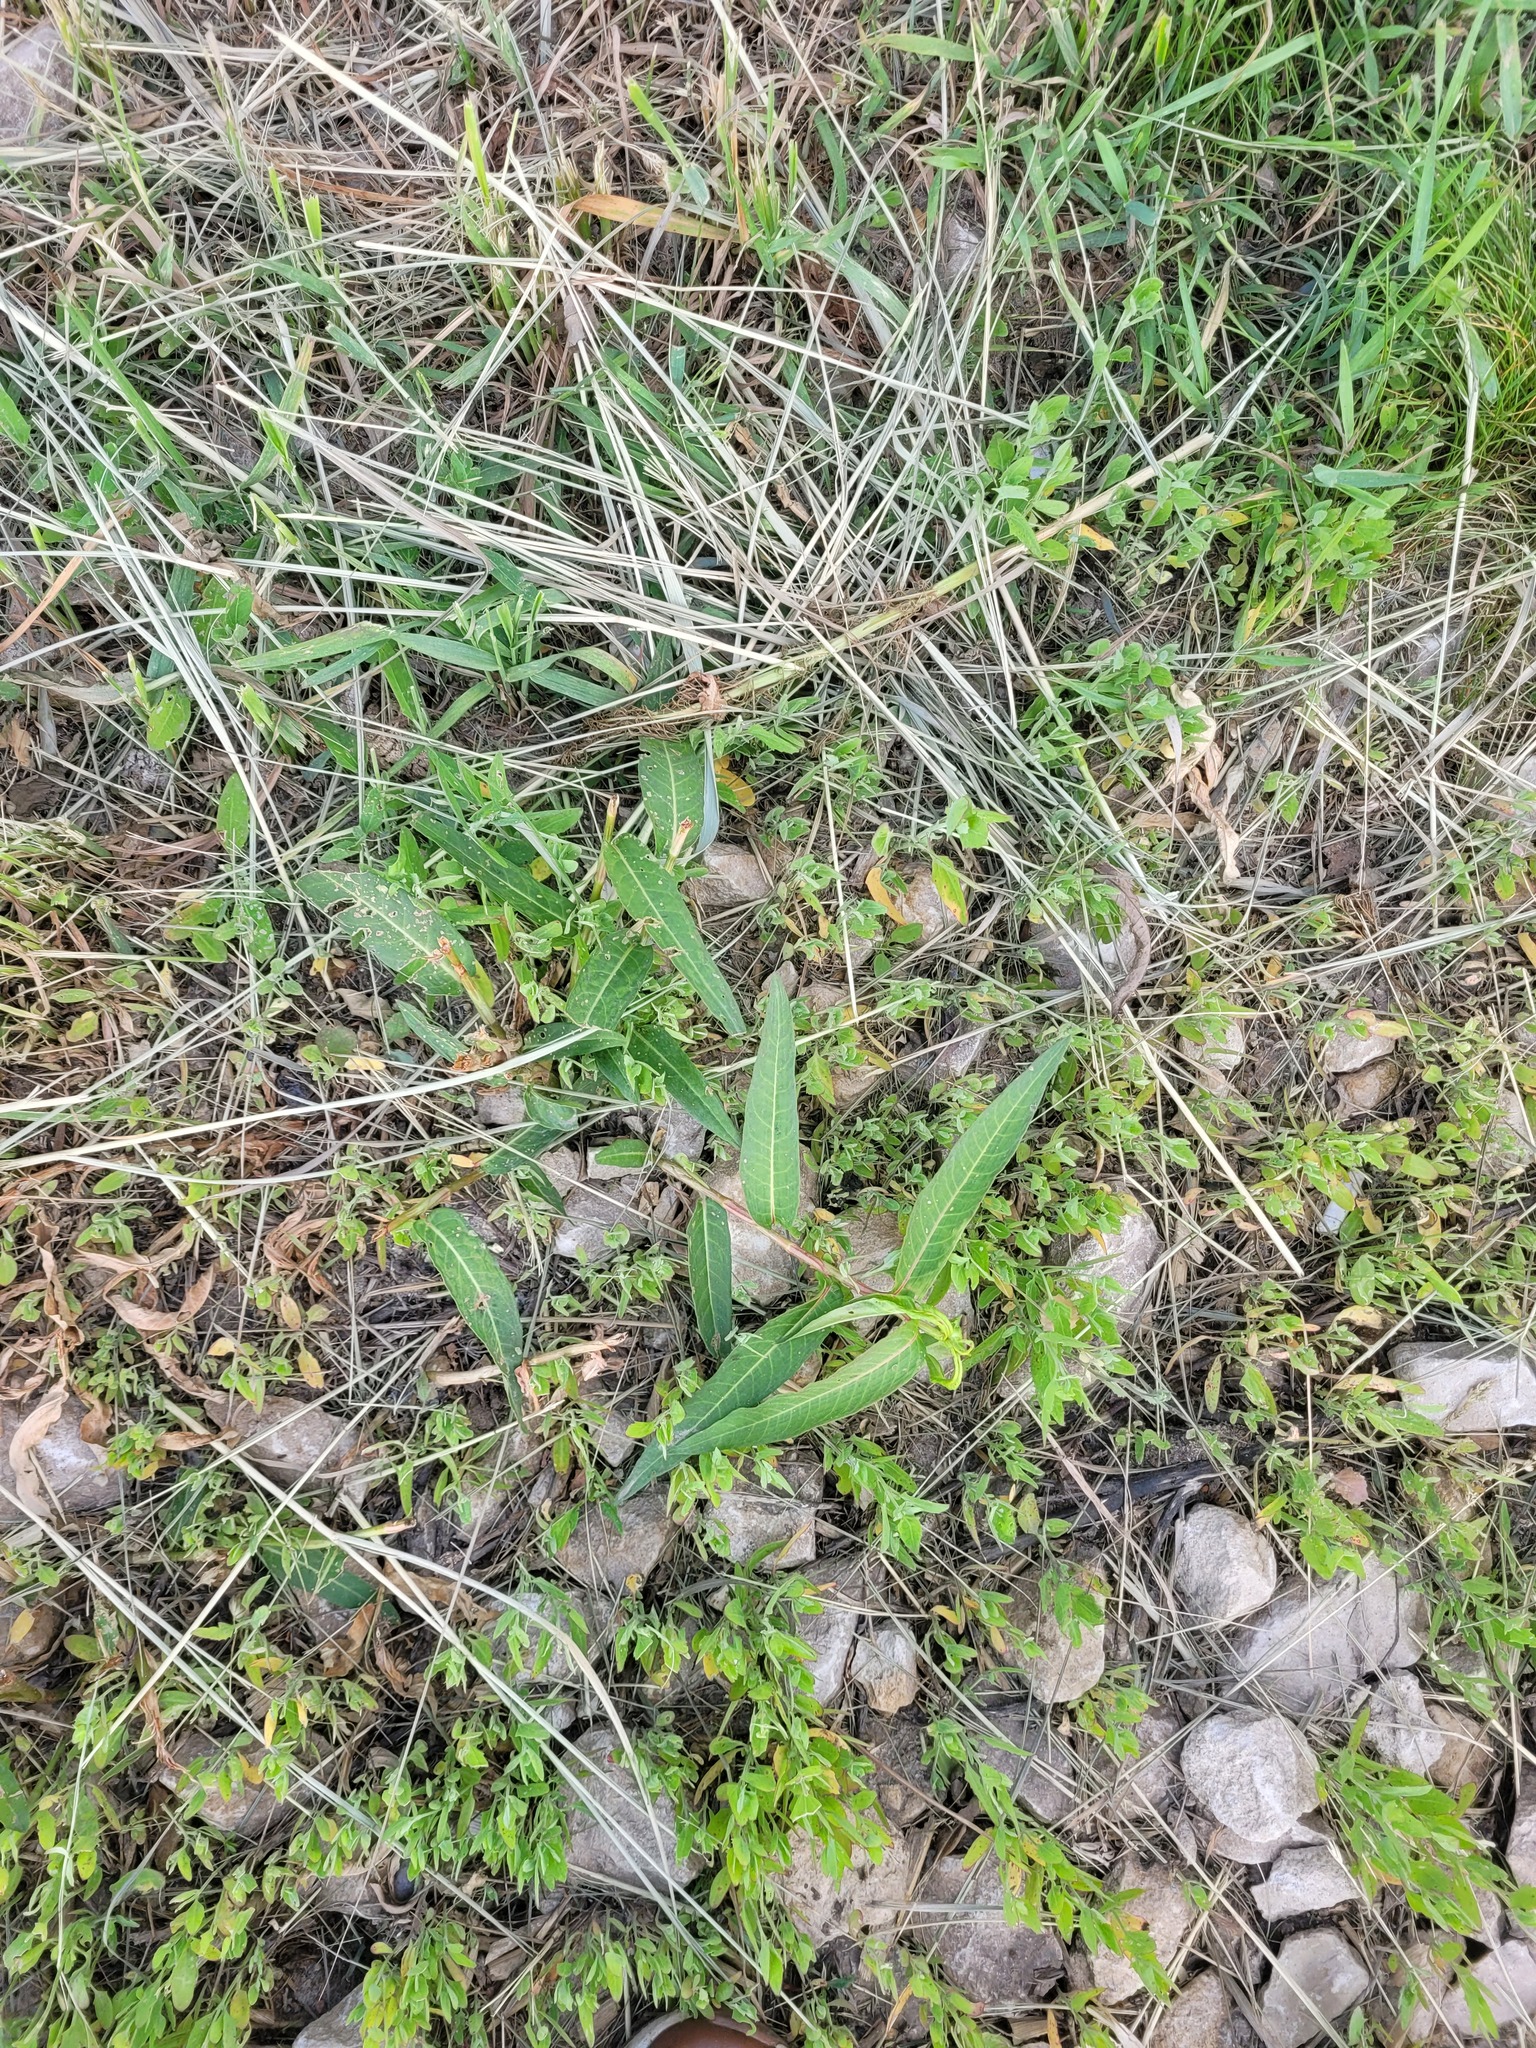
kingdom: Plantae
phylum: Tracheophyta
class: Magnoliopsida
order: Caryophyllales
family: Polygonaceae
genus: Persicaria
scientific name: Persicaria amphibia
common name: Amphibious bistort
